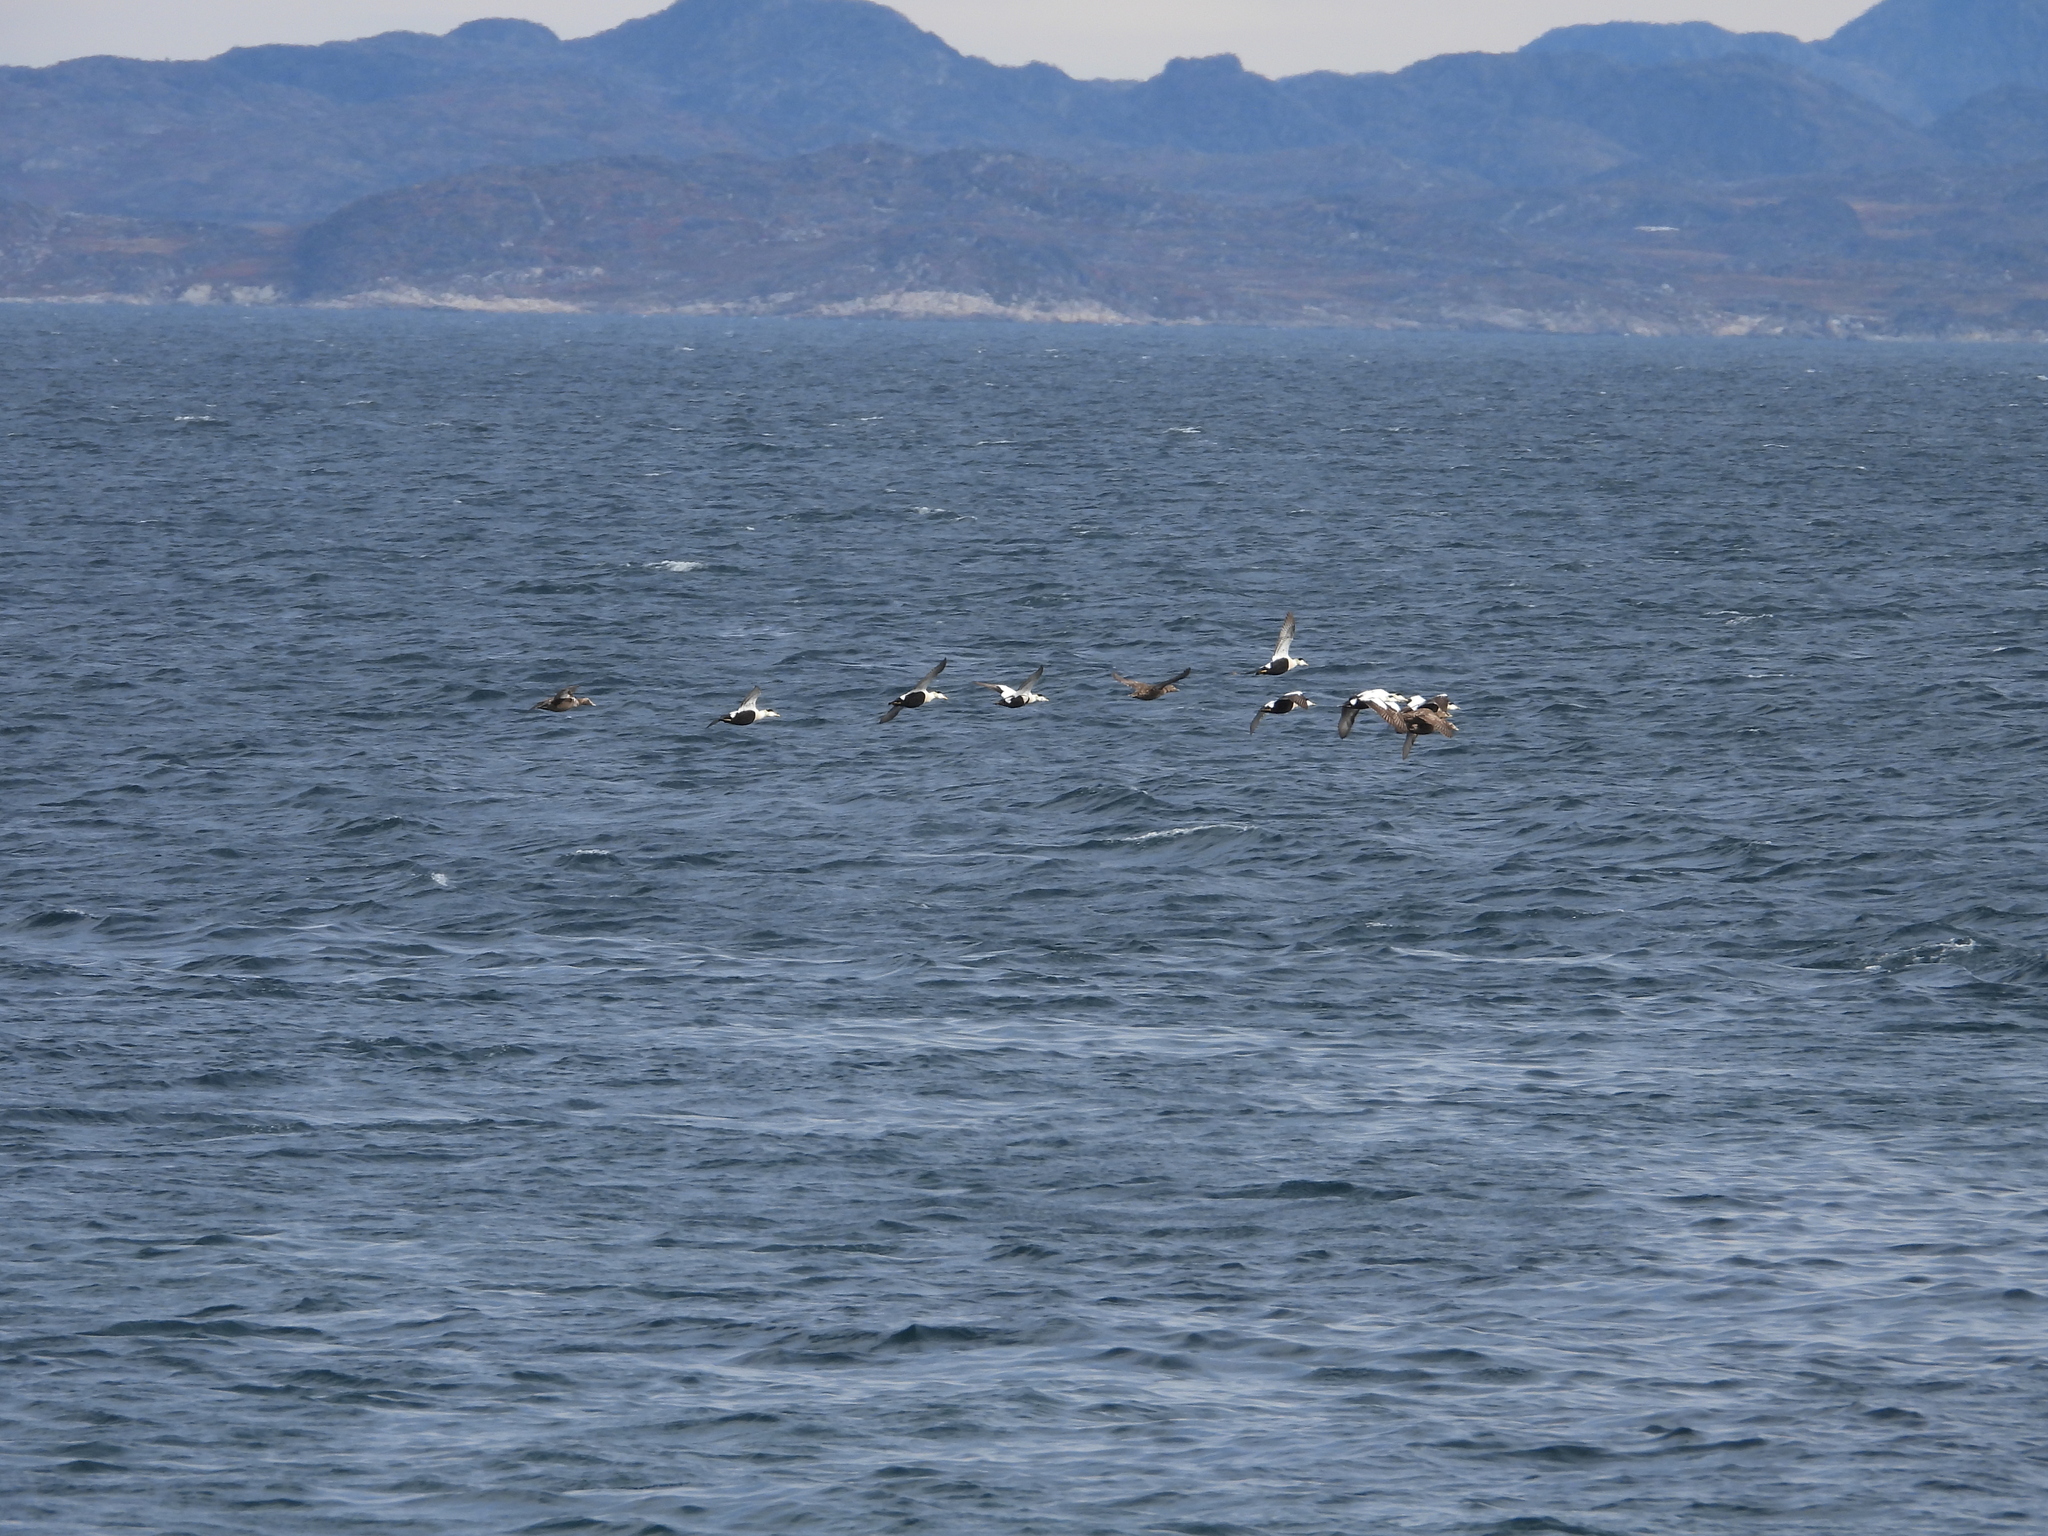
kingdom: Animalia
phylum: Chordata
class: Aves
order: Anseriformes
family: Anatidae
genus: Somateria
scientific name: Somateria mollissima
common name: Common eider
